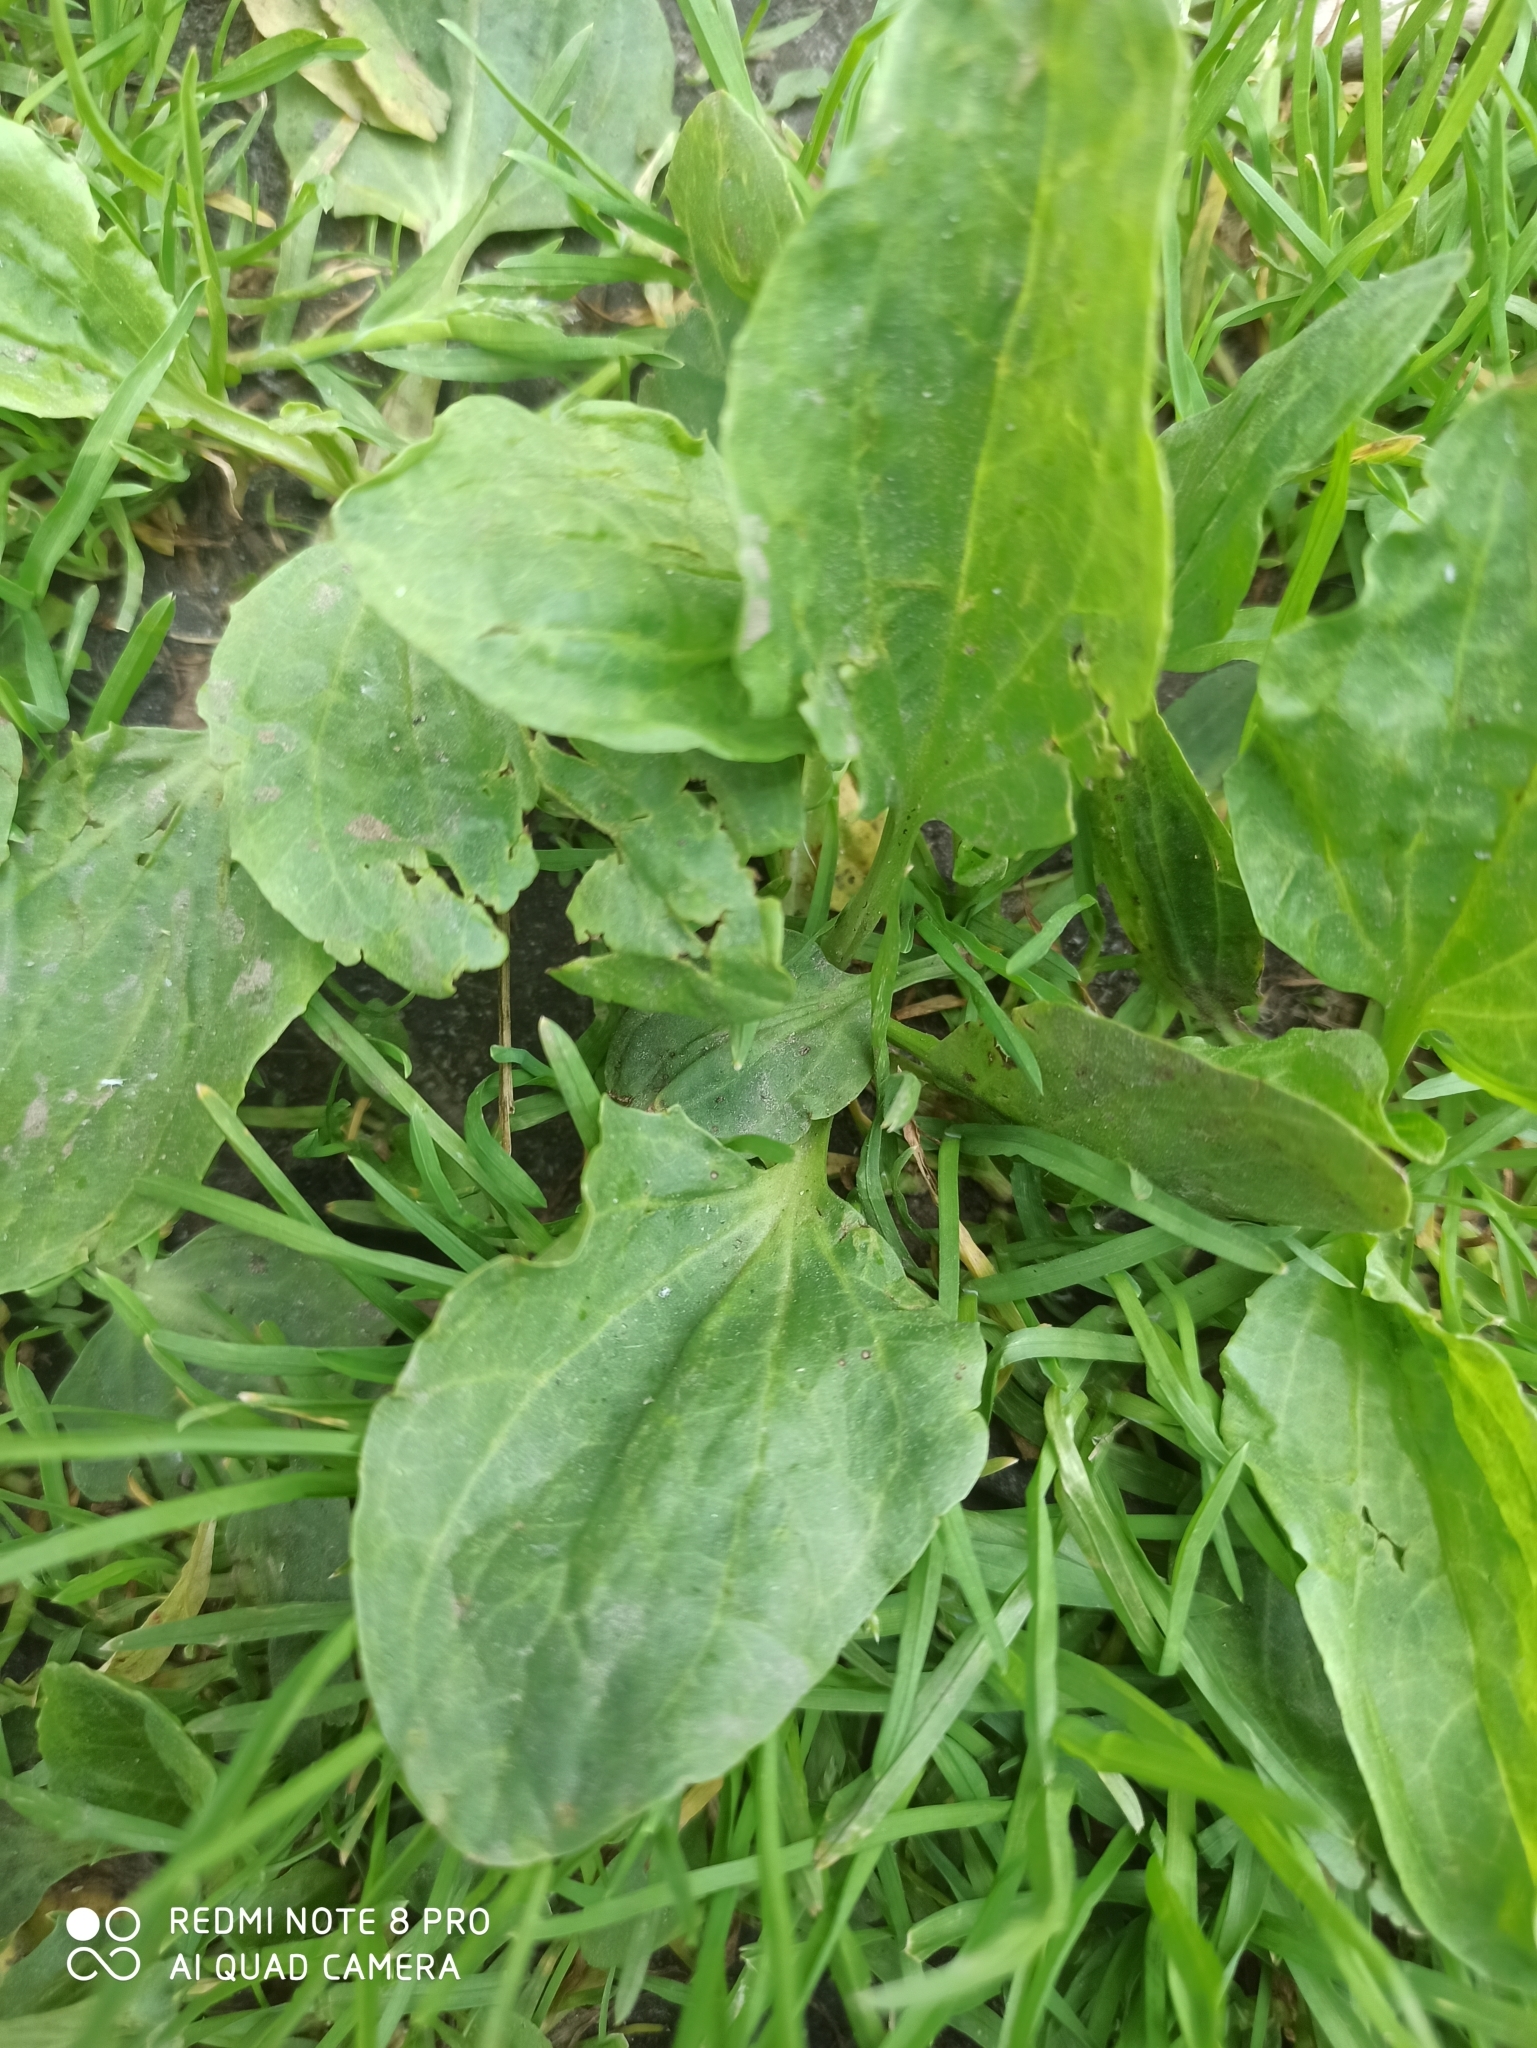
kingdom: Plantae
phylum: Tracheophyta
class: Magnoliopsida
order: Lamiales
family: Plantaginaceae
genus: Plantago
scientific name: Plantago major
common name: Common plantain
